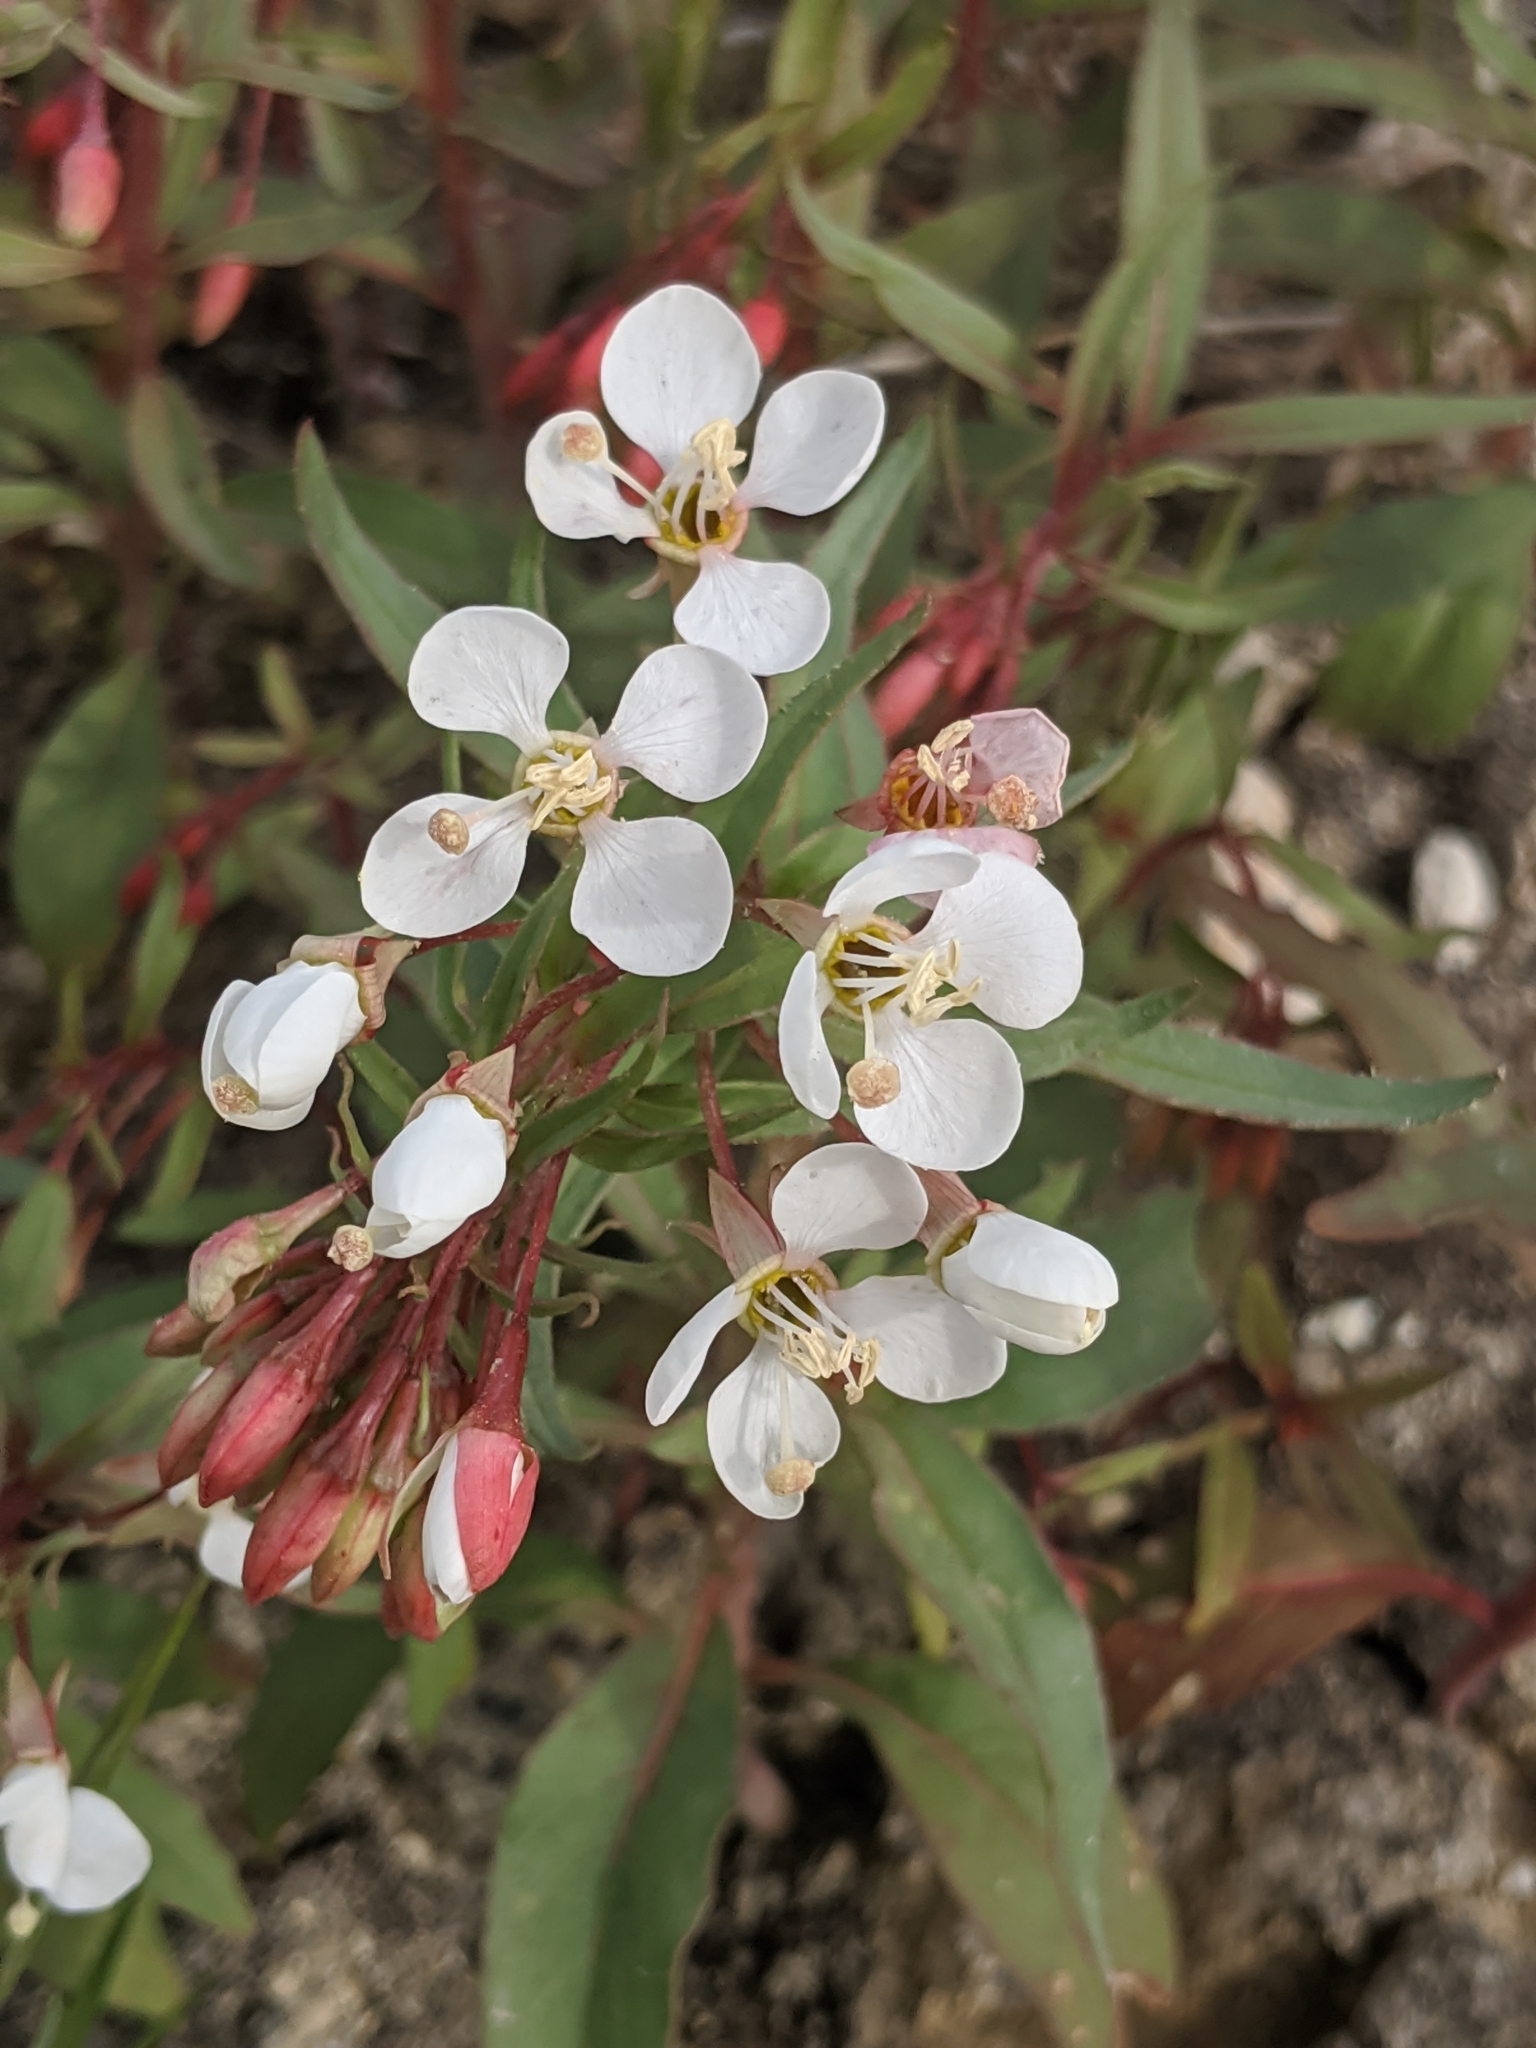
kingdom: Plantae
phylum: Tracheophyta
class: Magnoliopsida
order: Myrtales
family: Onagraceae
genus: Eremothera
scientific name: Eremothera boothii
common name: Booth's evening primrose
